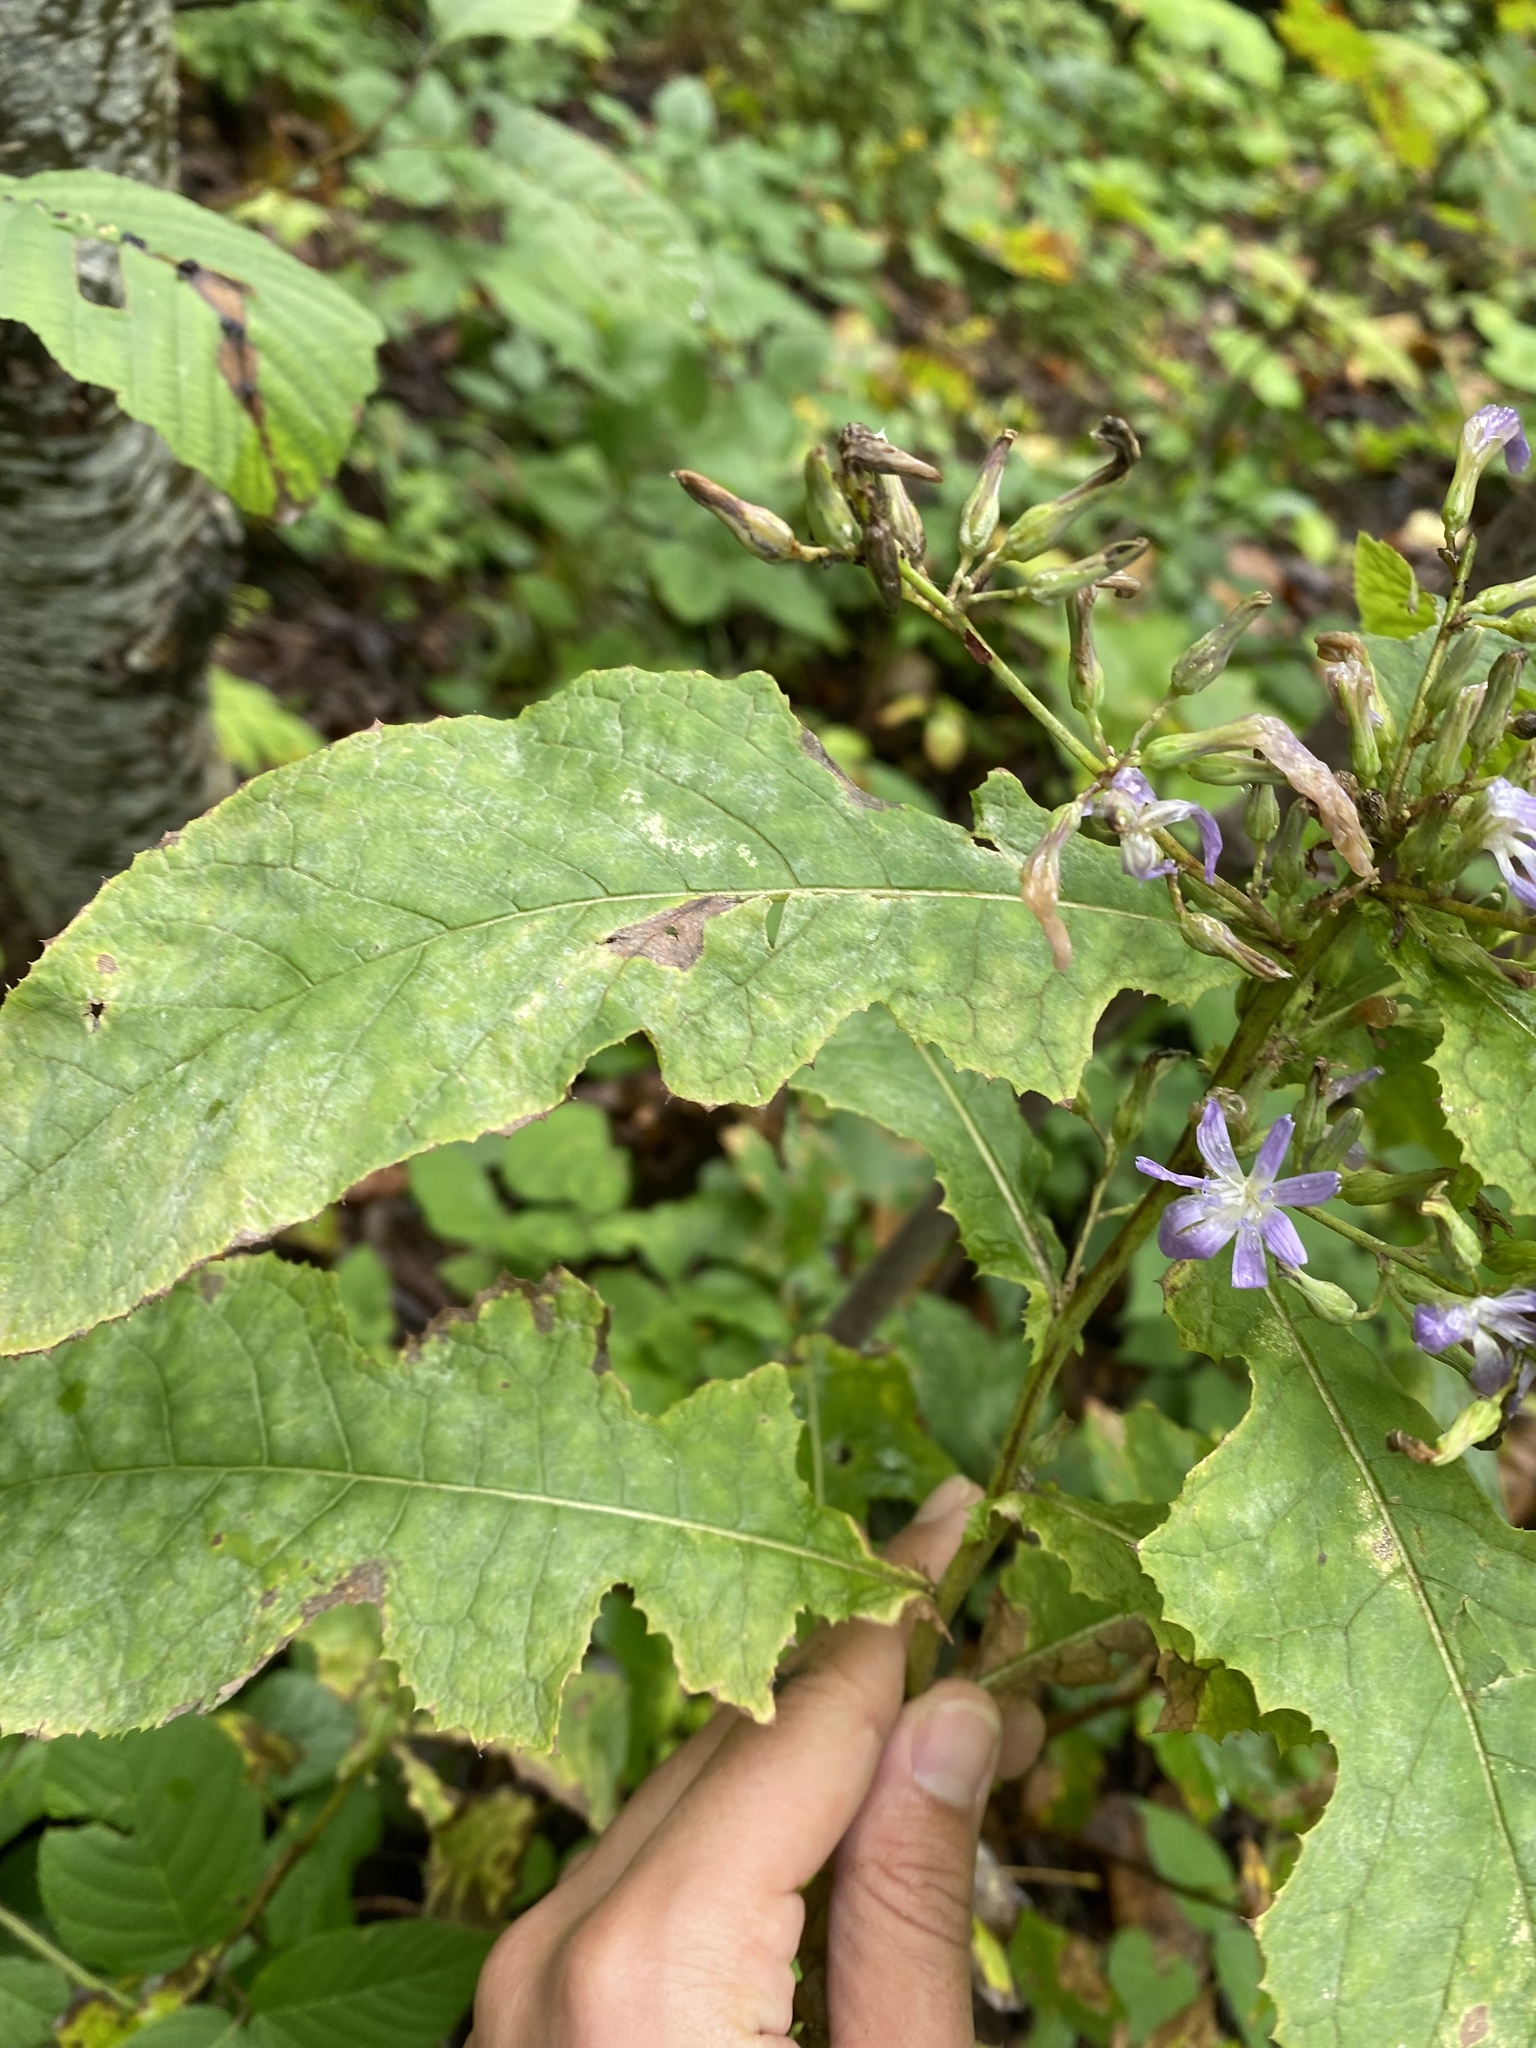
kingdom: Plantae
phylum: Tracheophyta
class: Magnoliopsida
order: Asterales
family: Asteraceae
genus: Cicerbita
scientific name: Cicerbita prenanthoides
